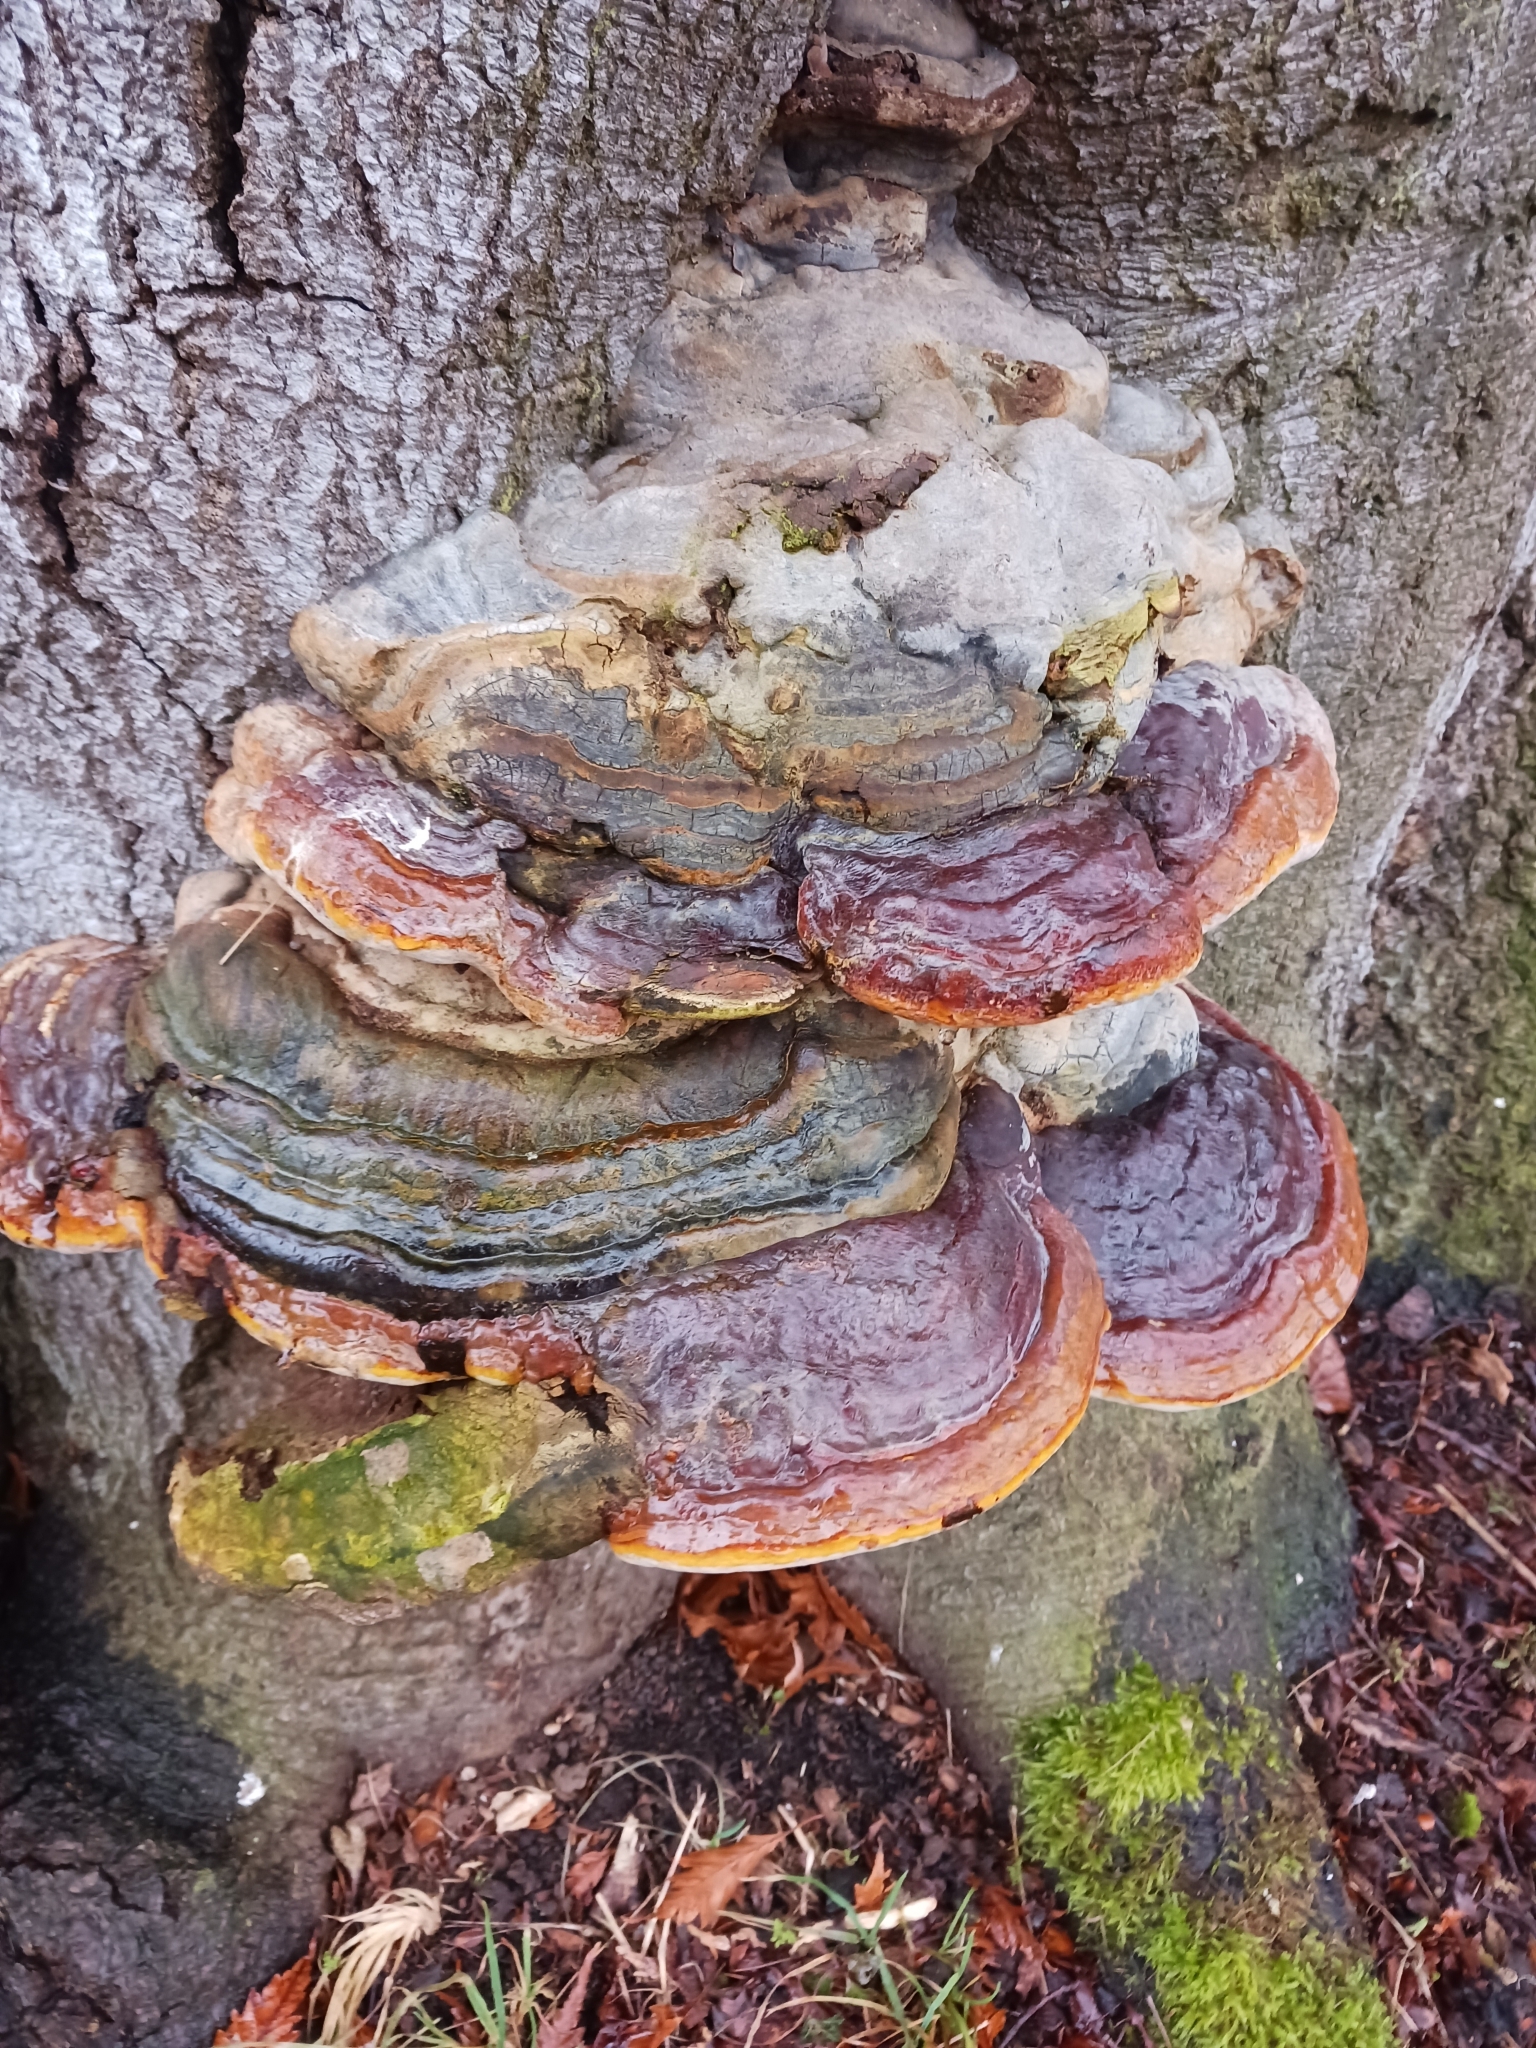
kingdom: Fungi
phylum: Basidiomycota
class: Agaricomycetes
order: Polyporales
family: Fomitopsidaceae
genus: Fomitopsis
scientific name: Fomitopsis pinicola
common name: Red-belted bracket
